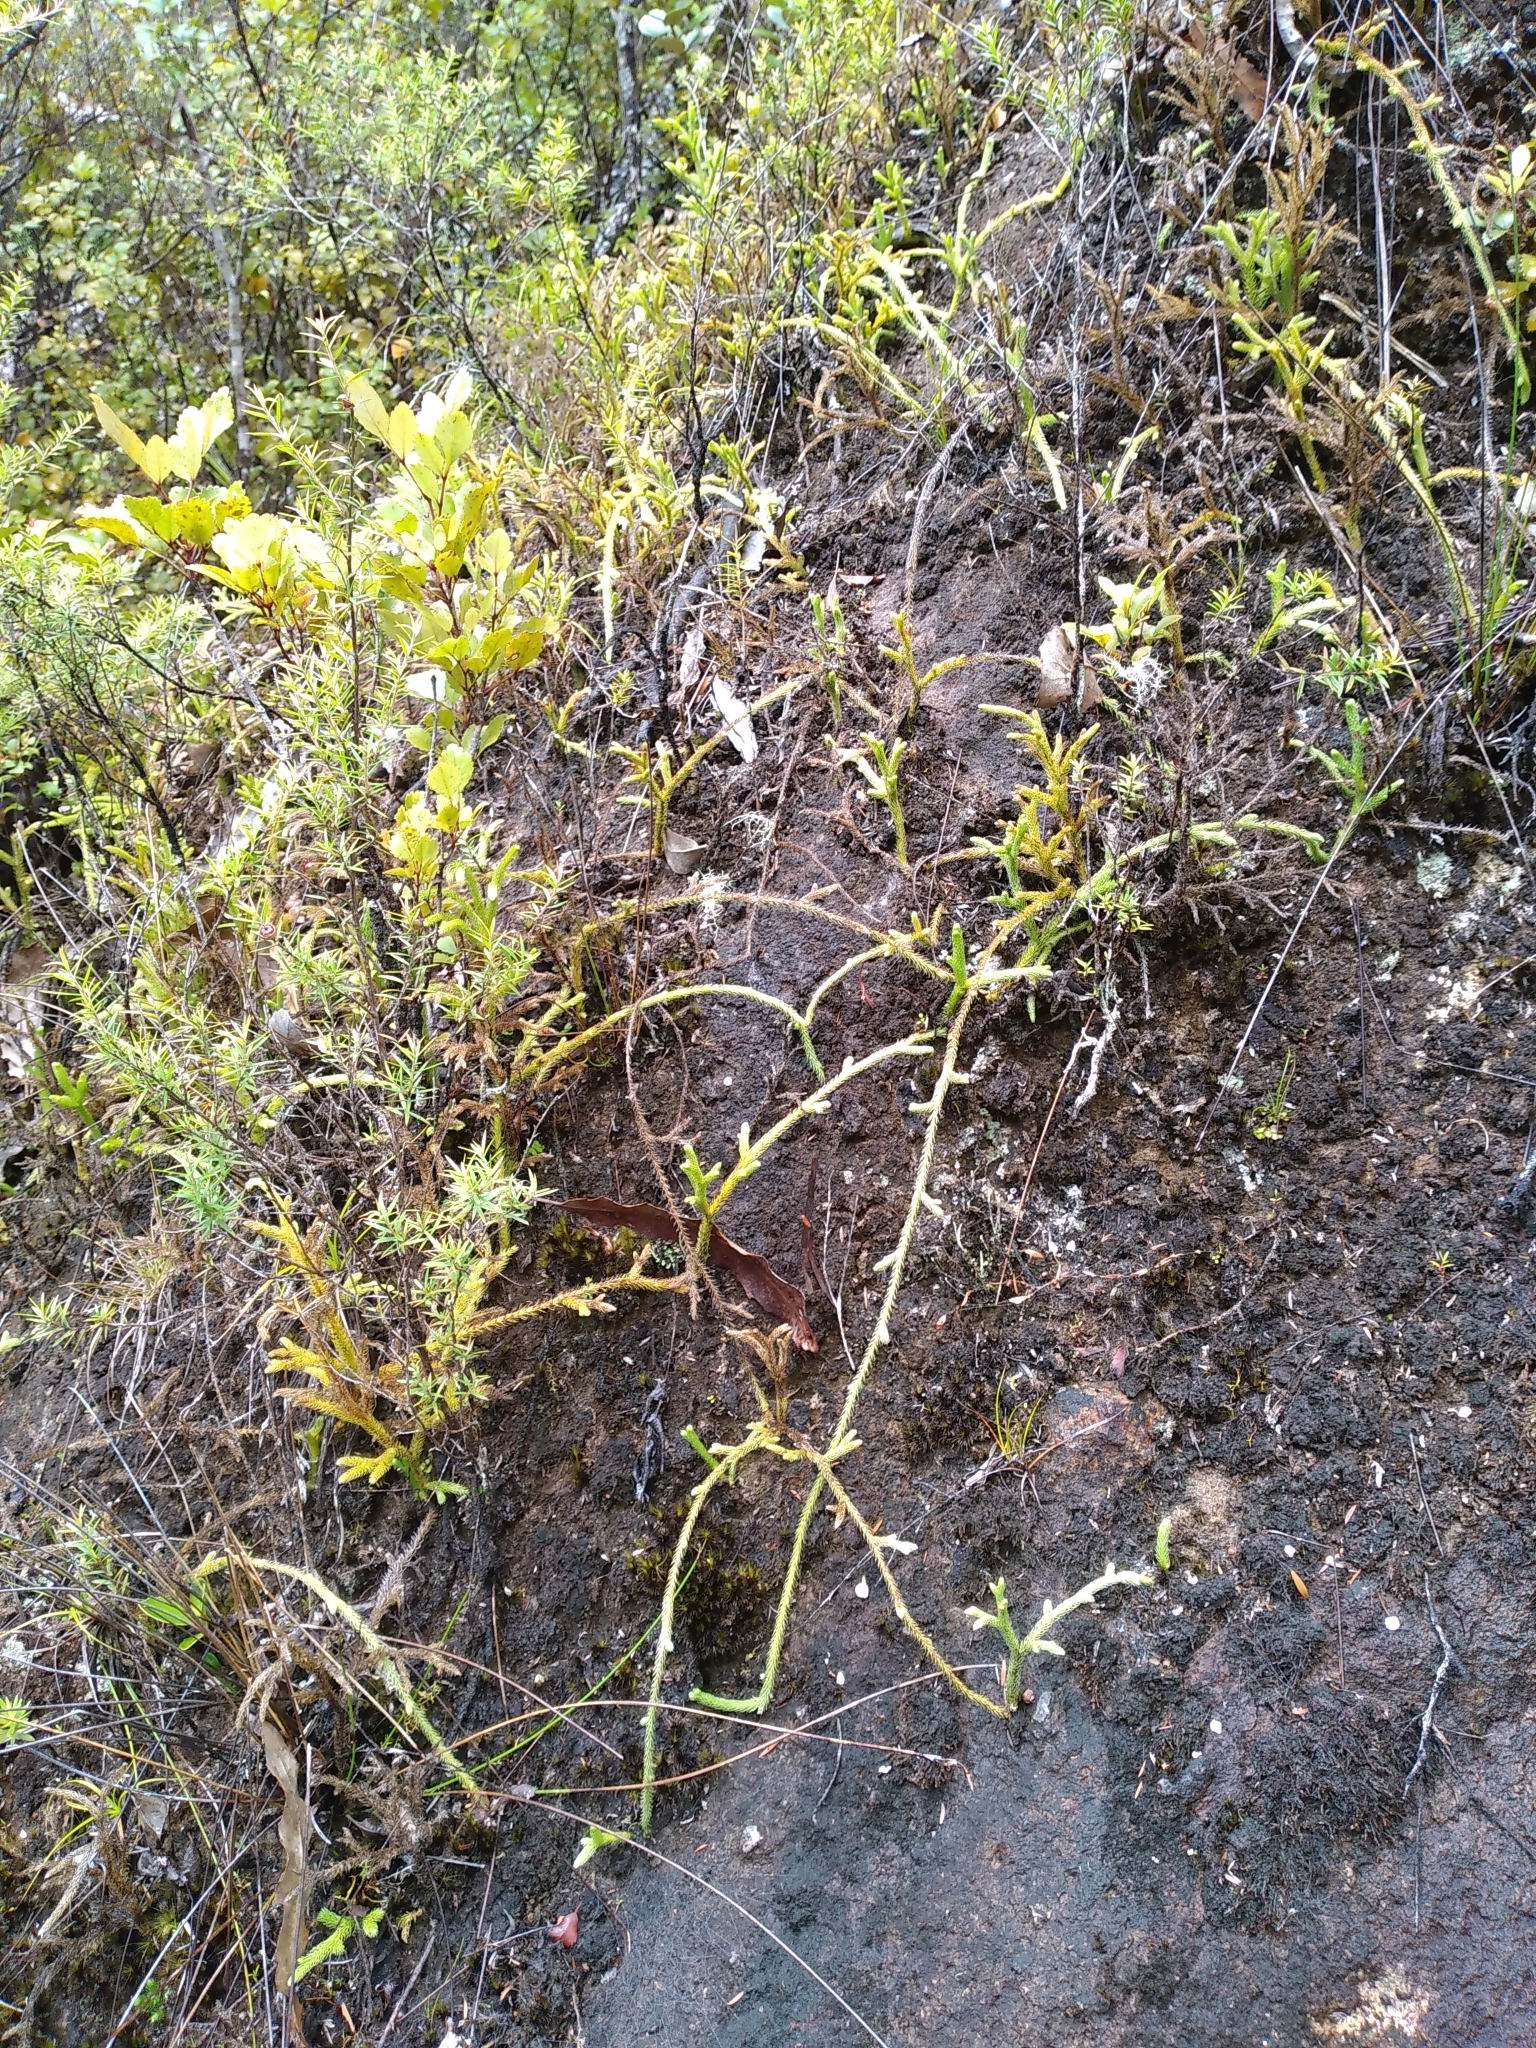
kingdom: Plantae
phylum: Tracheophyta
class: Lycopodiopsida
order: Lycopodiales
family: Lycopodiaceae
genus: Palhinhaea
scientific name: Palhinhaea cernua
